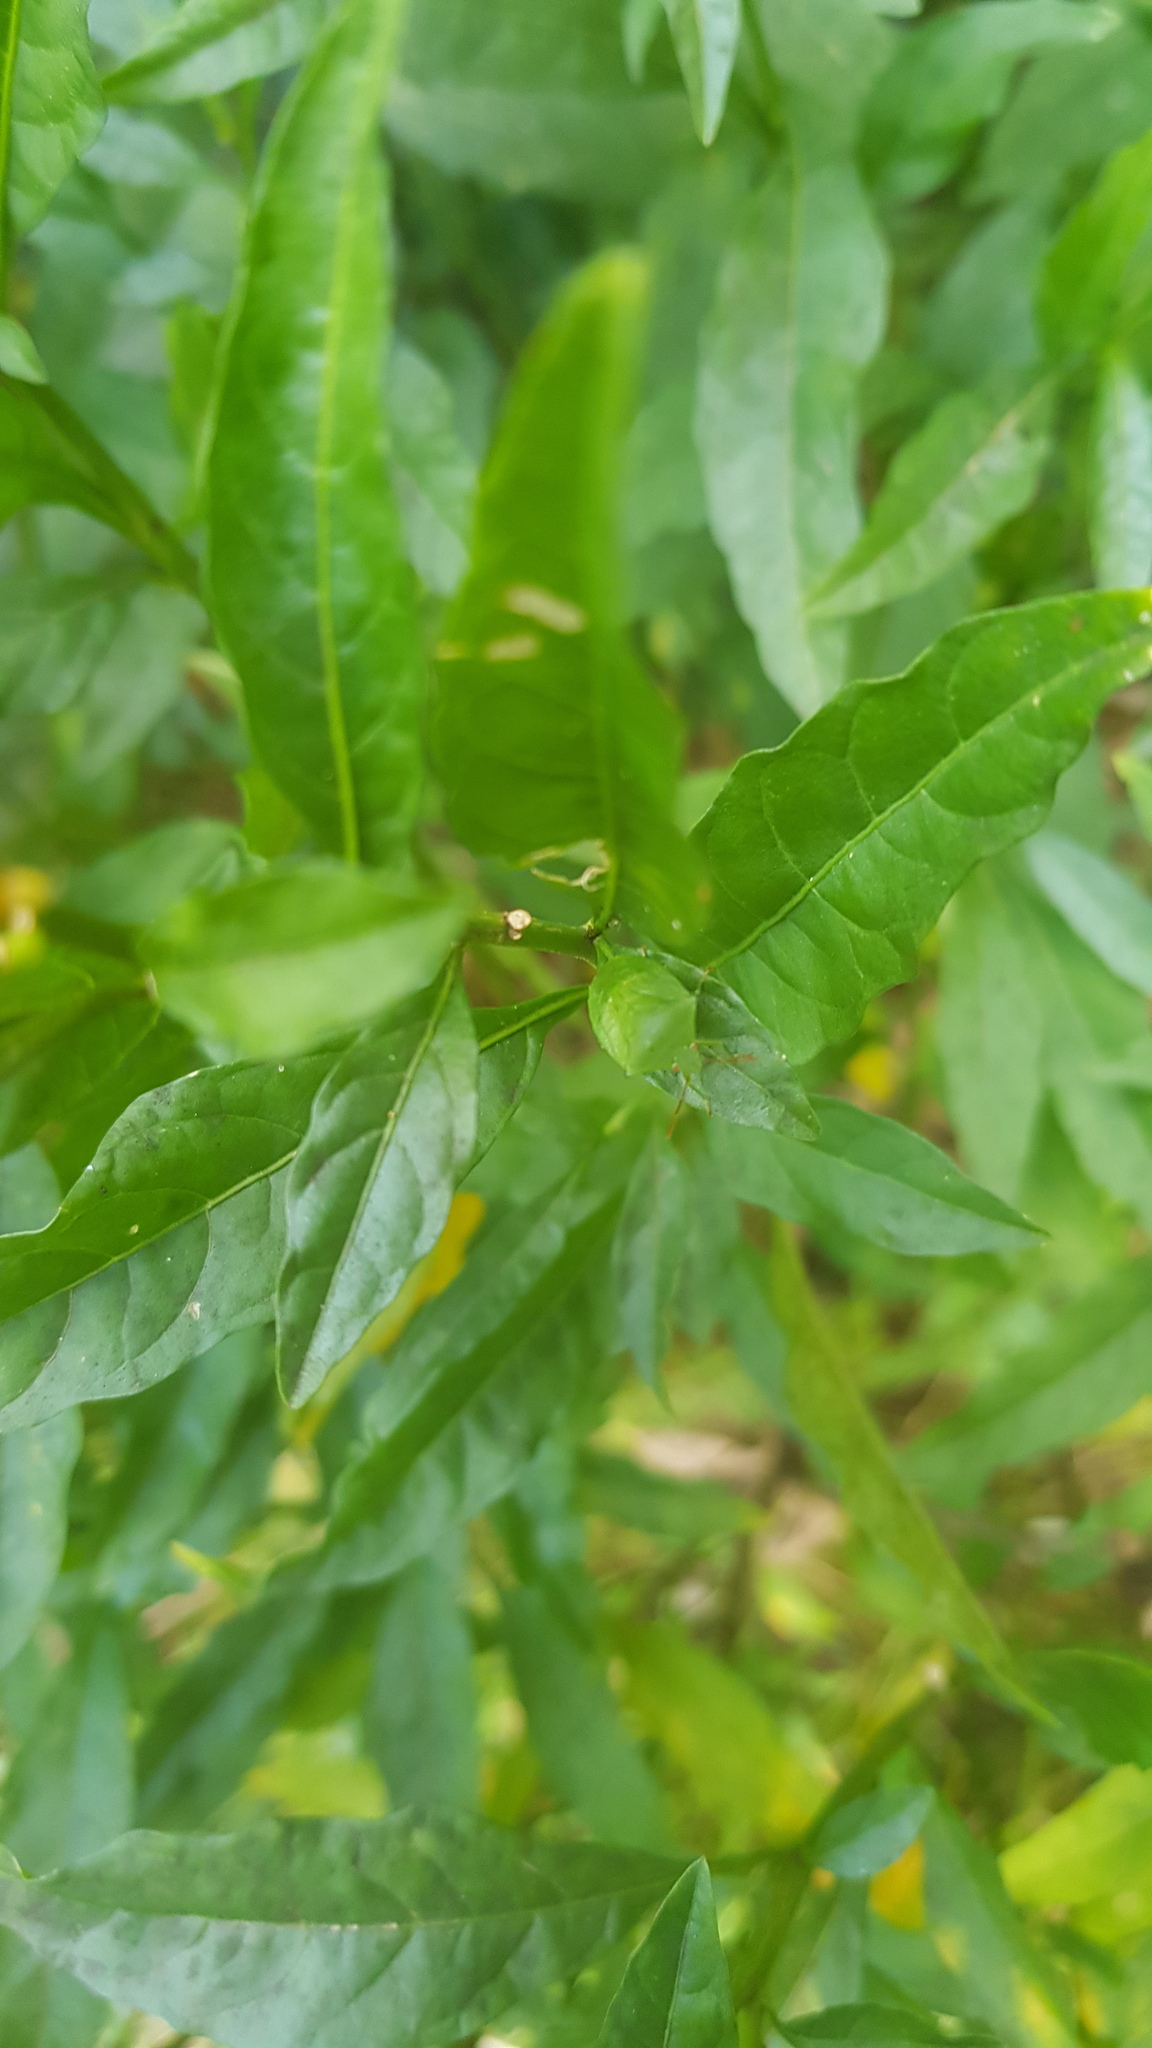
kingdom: Plantae
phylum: Tracheophyta
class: Magnoliopsida
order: Solanales
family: Solanaceae
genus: Solanum
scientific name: Solanum pseudocapsicum
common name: Jerusalem cherry
